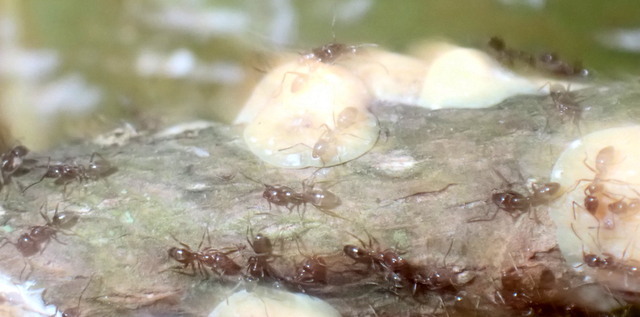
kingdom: Animalia
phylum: Arthropoda
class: Insecta
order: Hymenoptera
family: Formicidae
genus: Linepithema
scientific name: Linepithema humile
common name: Argentine ant
